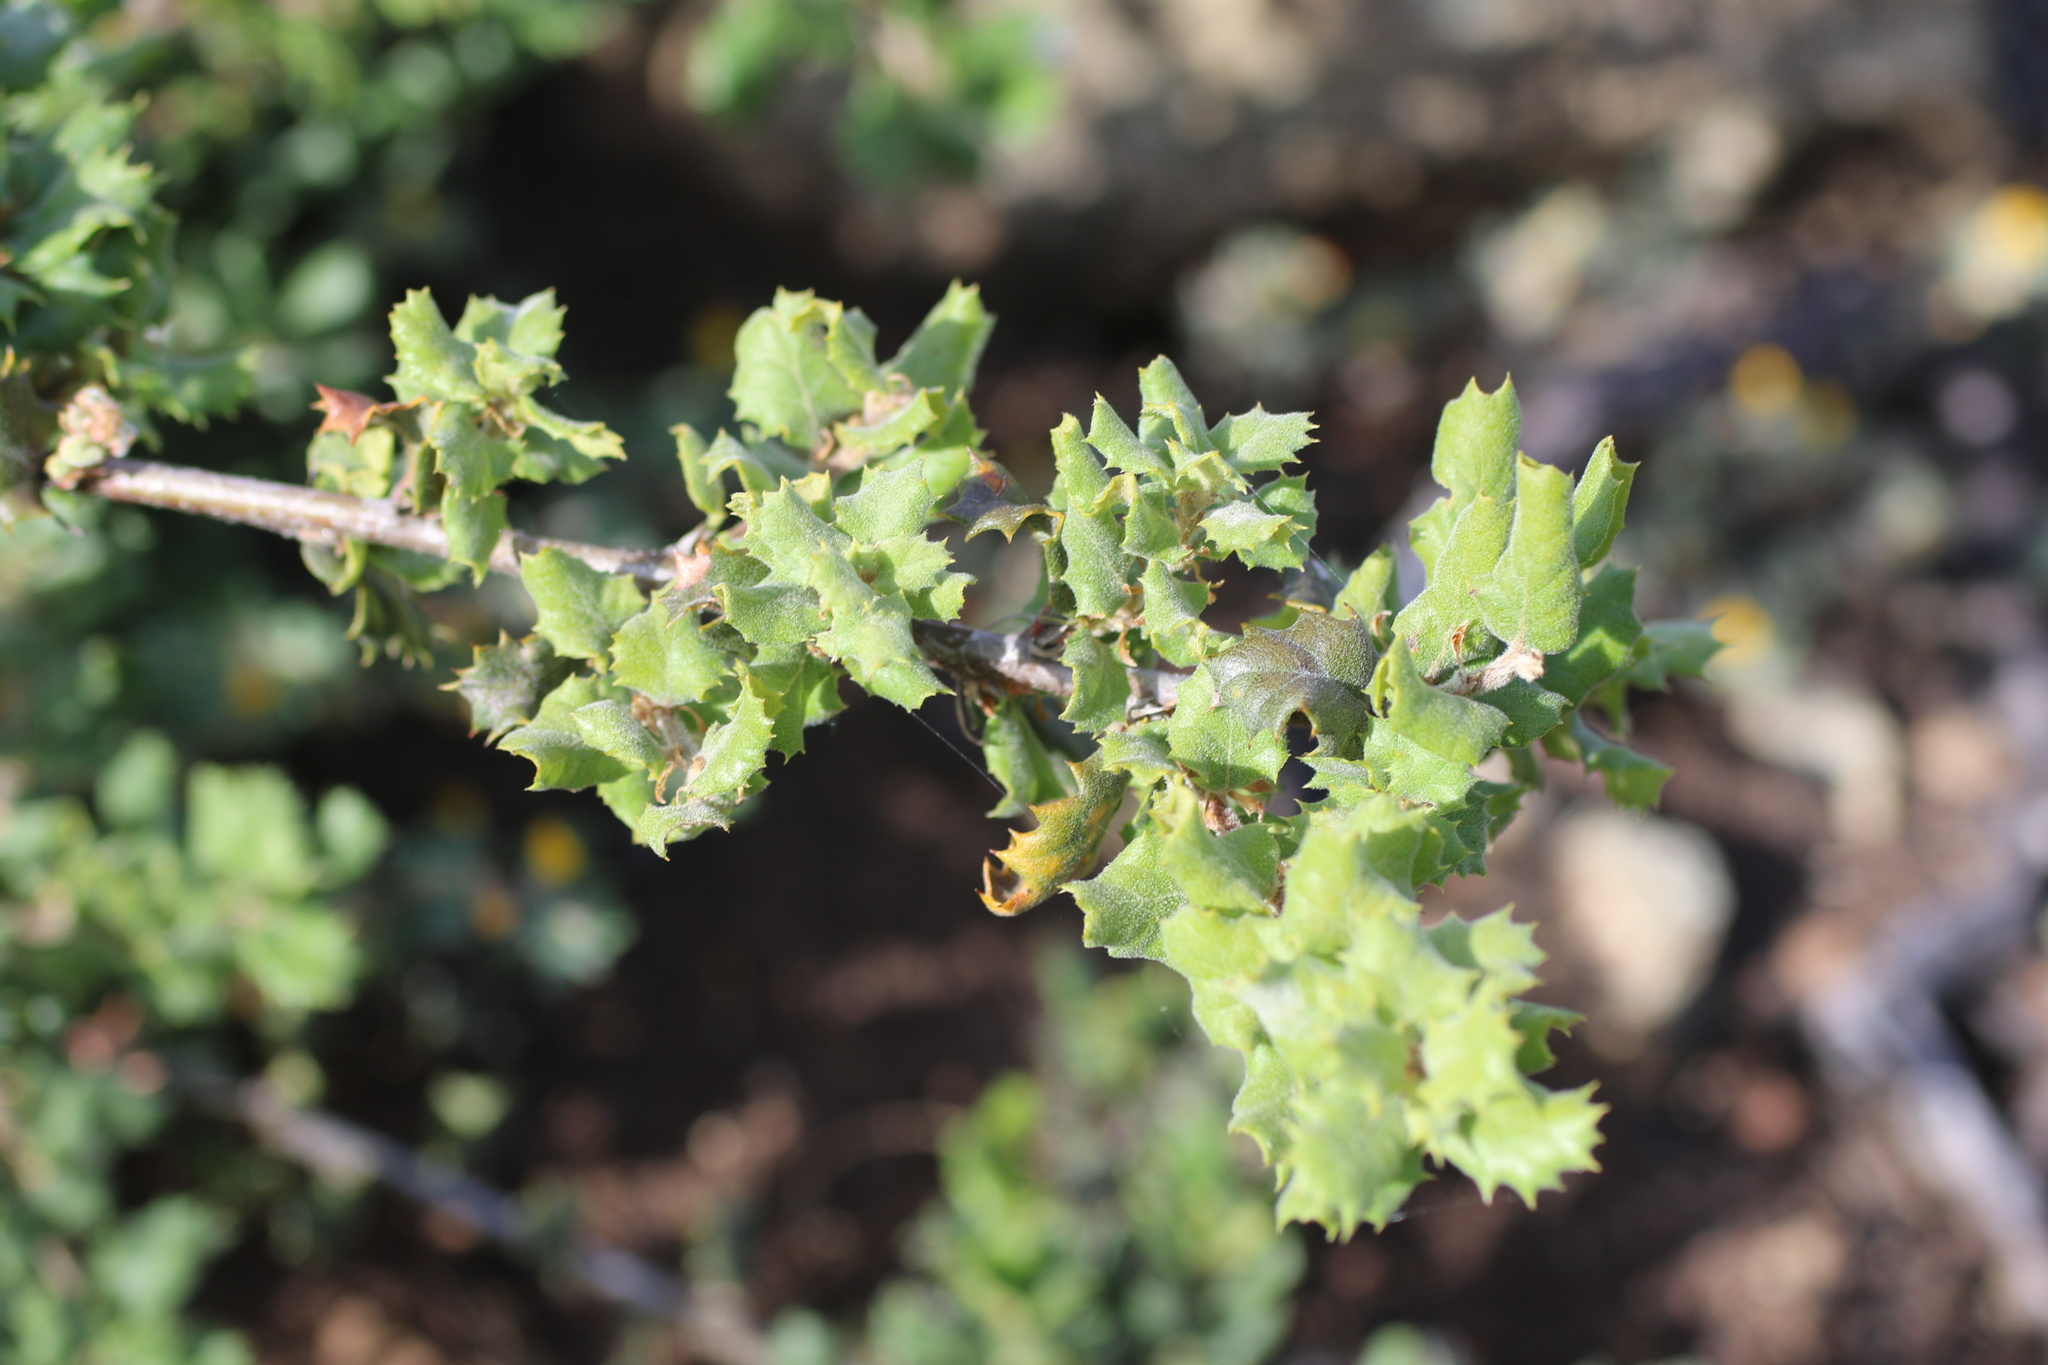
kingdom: Plantae
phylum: Tracheophyta
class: Magnoliopsida
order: Fagales
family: Fagaceae
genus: Quercus
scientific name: Quercus durata
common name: Leather oak
